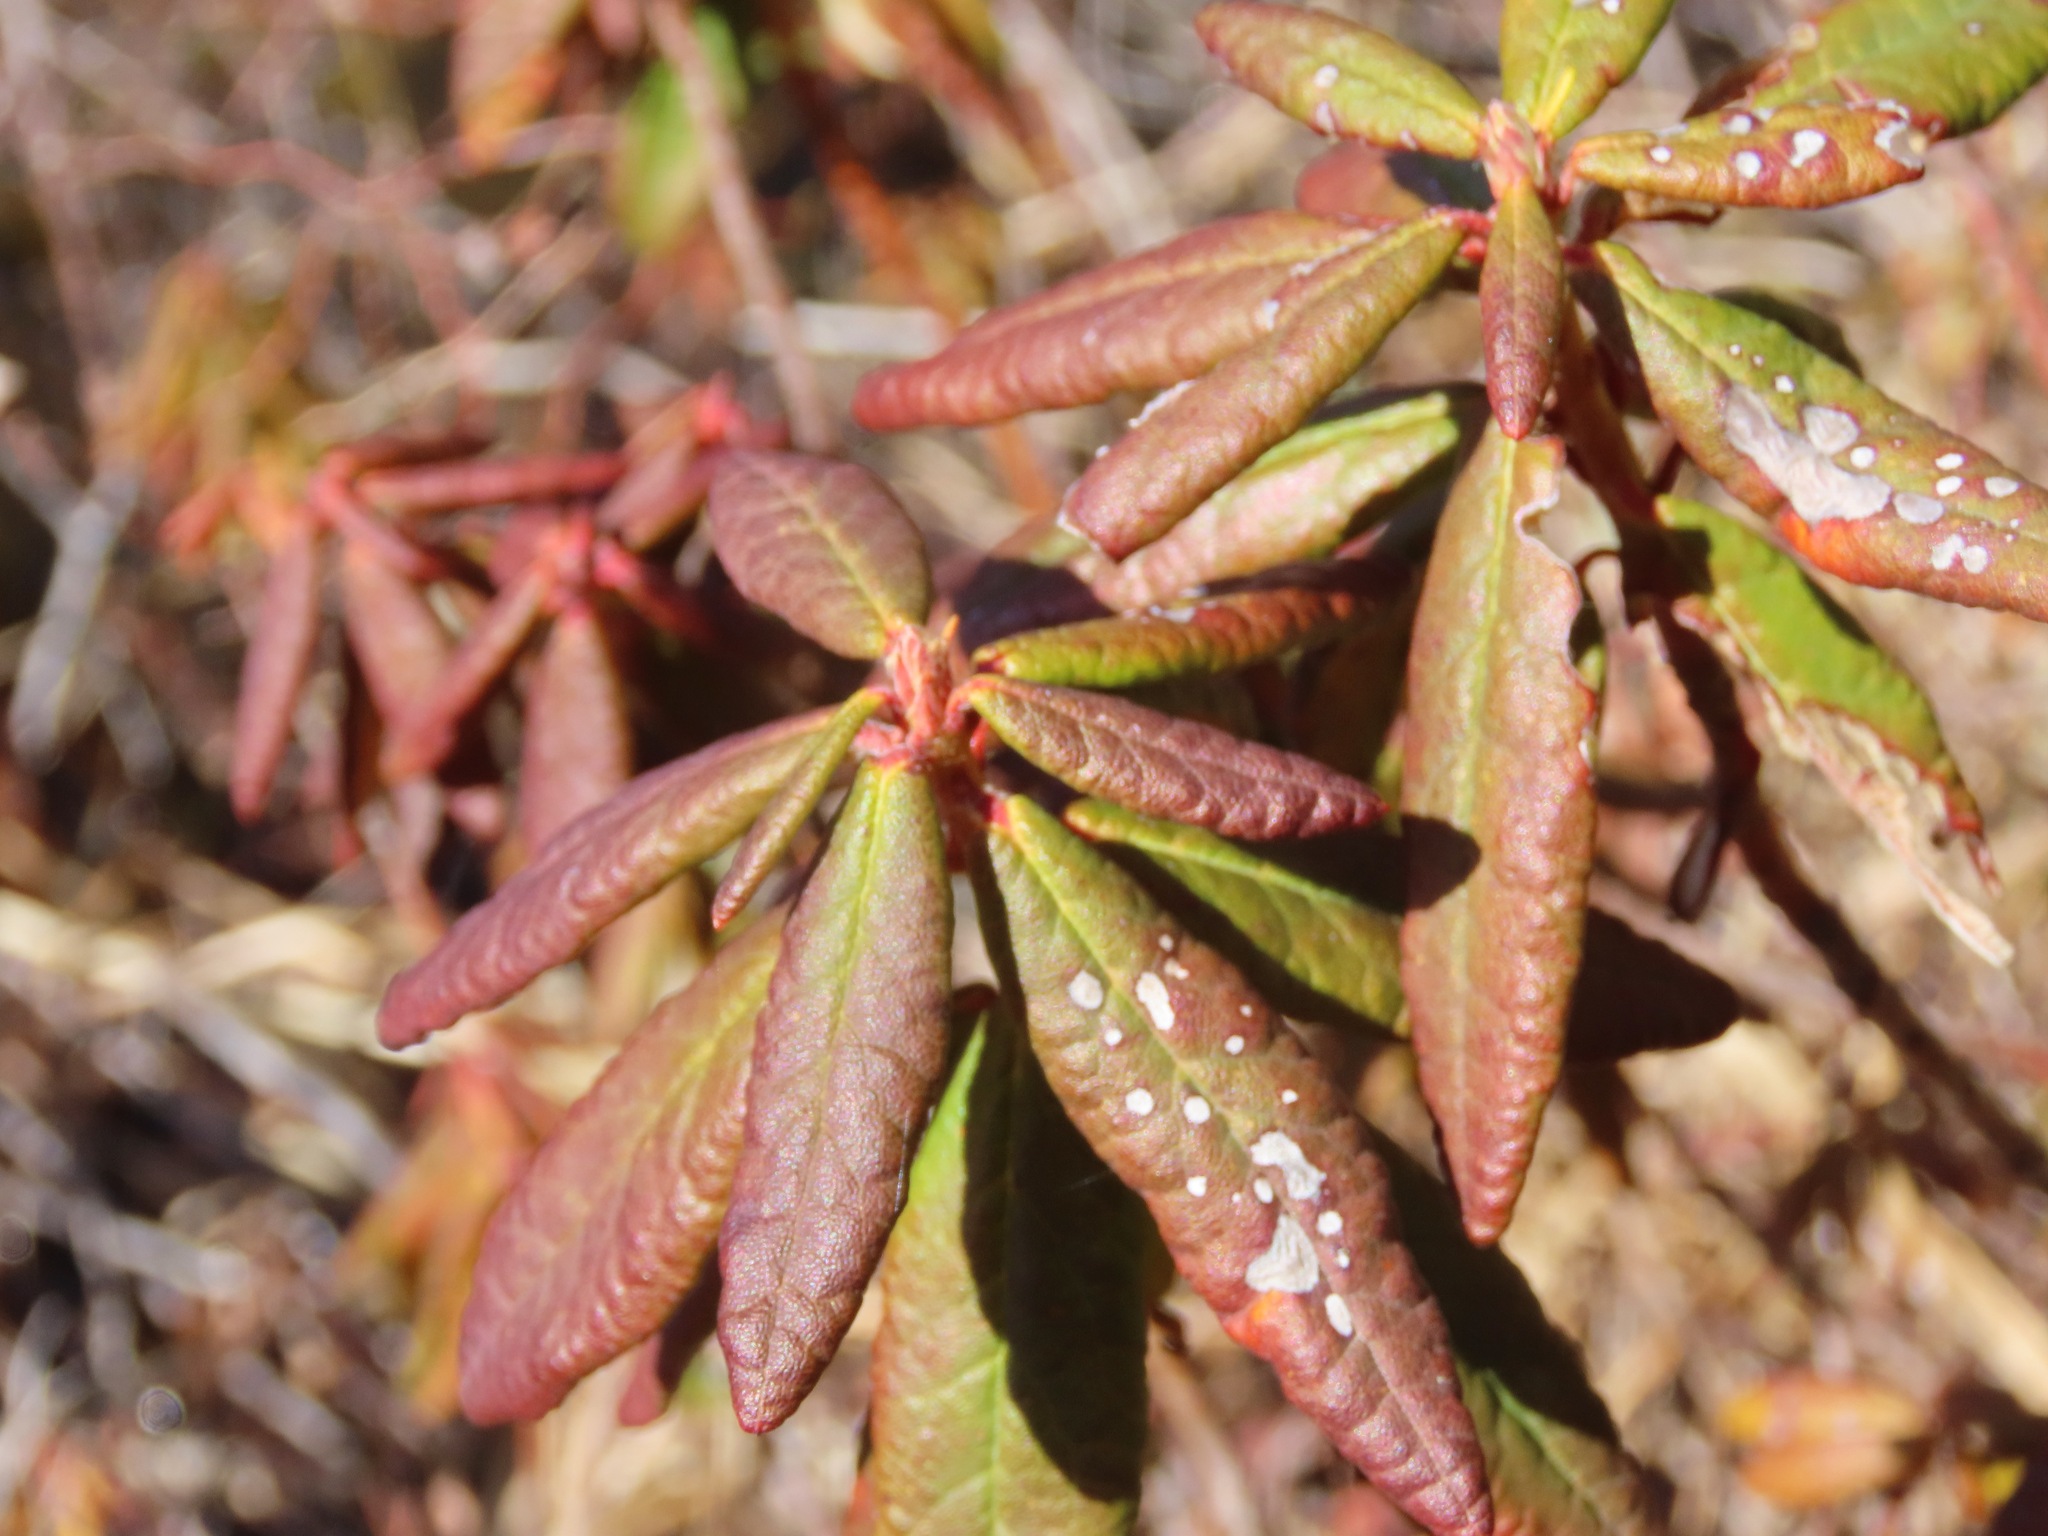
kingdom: Plantae
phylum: Tracheophyta
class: Magnoliopsida
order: Ericales
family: Ericaceae
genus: Rhododendron
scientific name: Rhododendron groenlandicum
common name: Bog labrador tea
